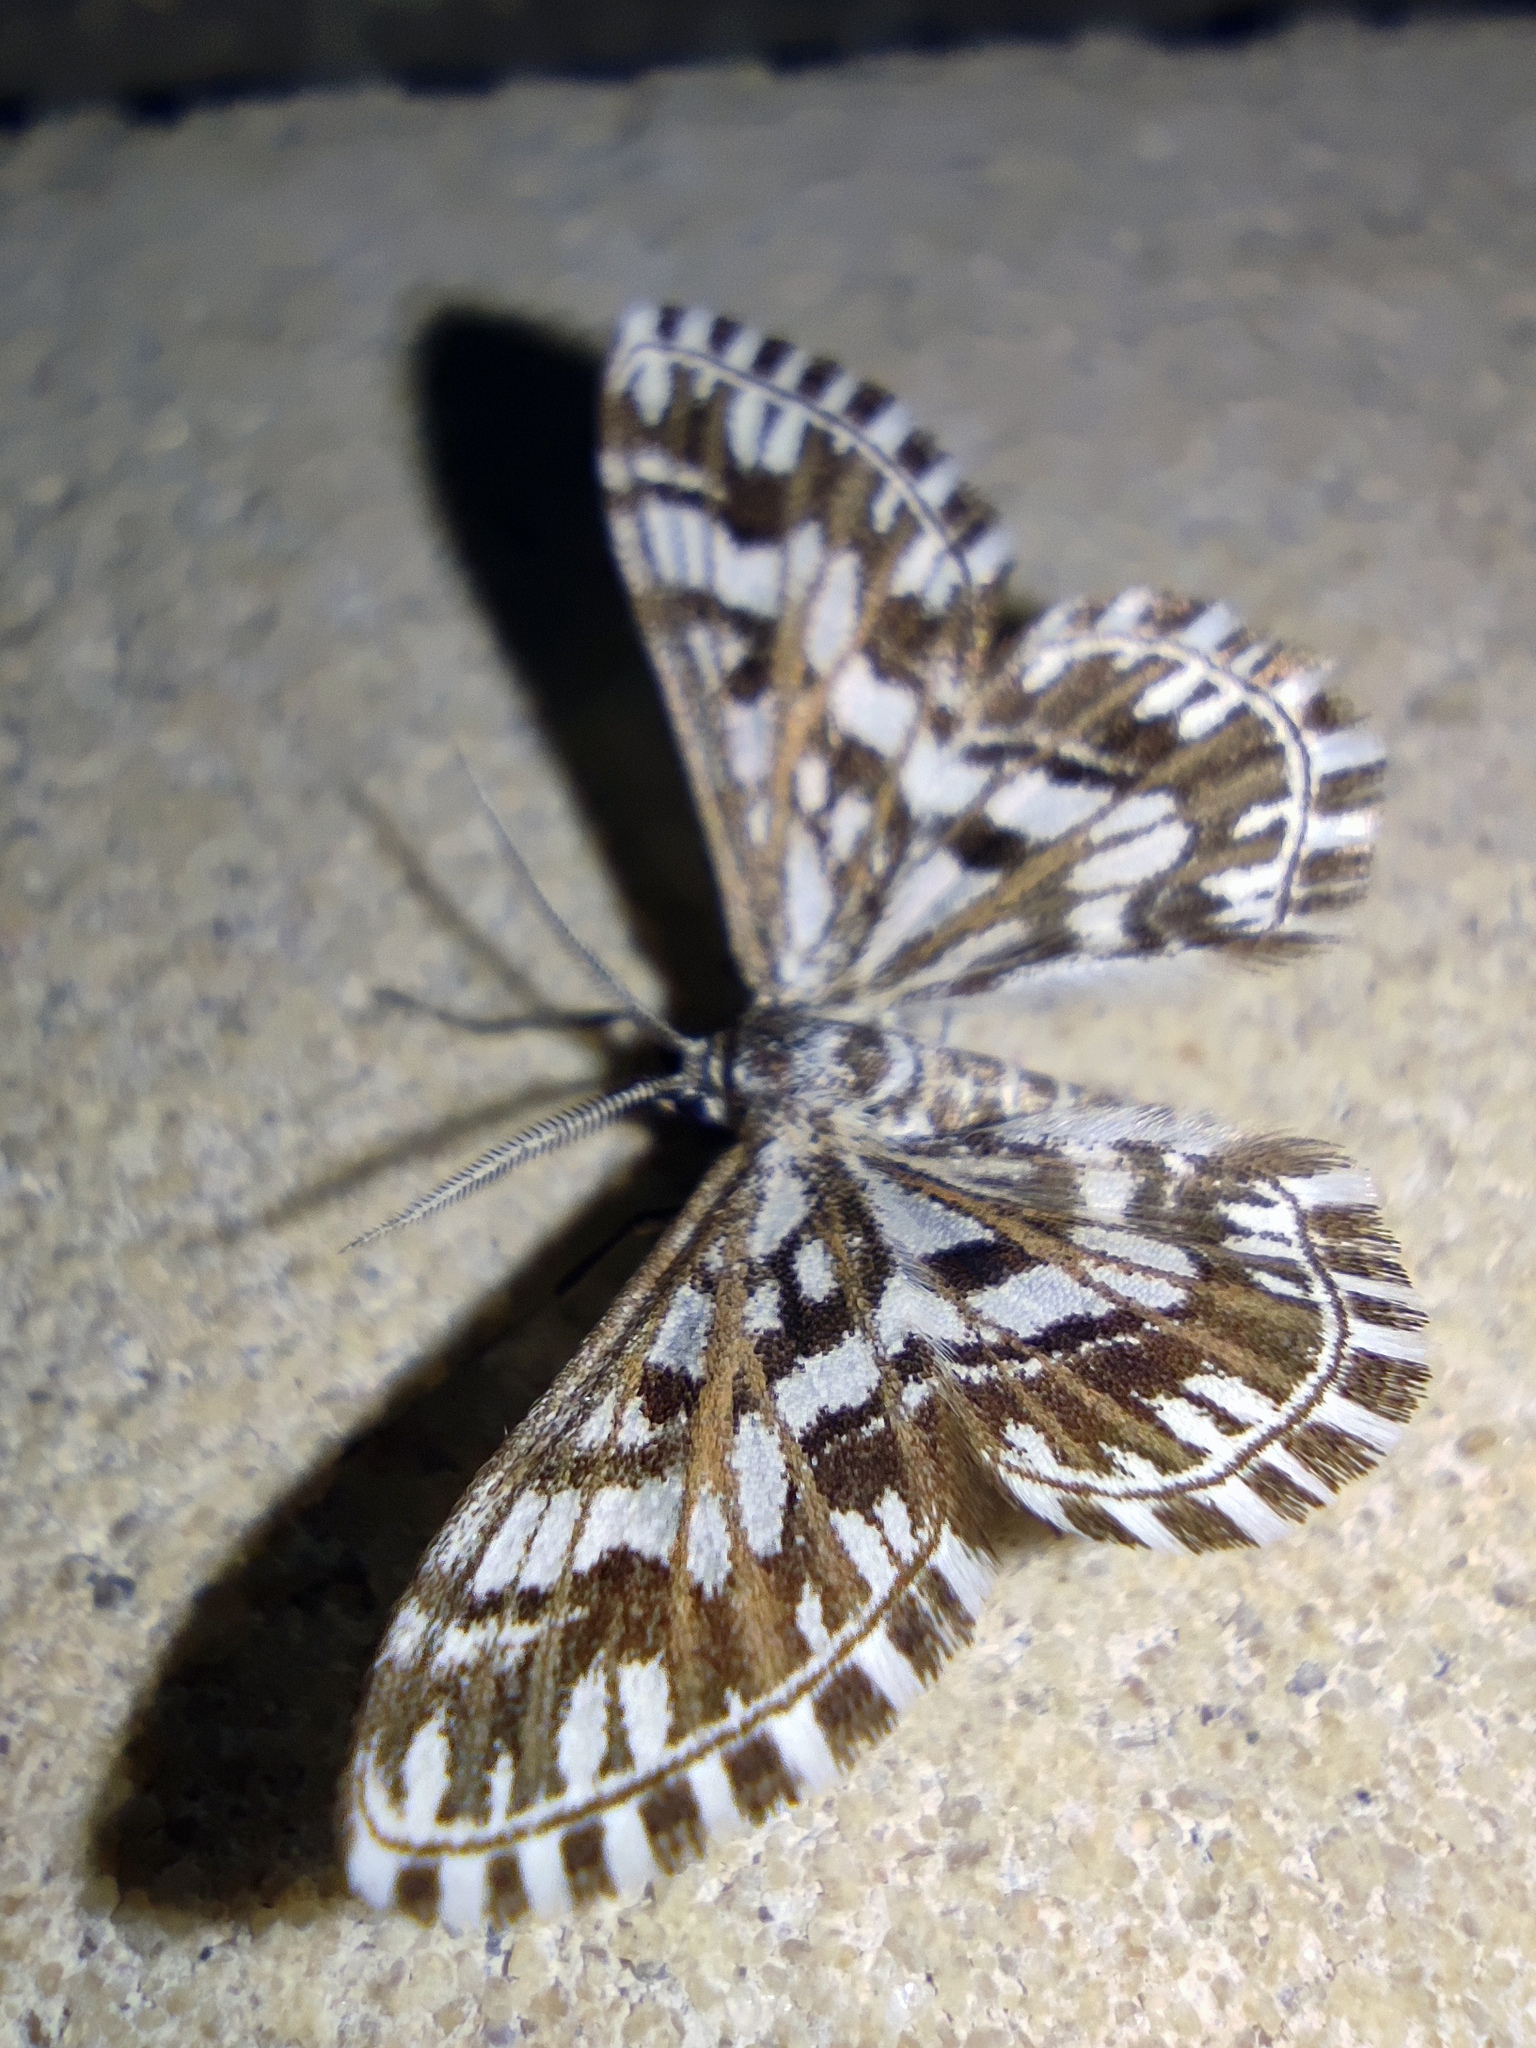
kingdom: Animalia
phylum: Arthropoda
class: Insecta
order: Lepidoptera
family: Geometridae
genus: Cinglis
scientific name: Cinglis humifusaria
